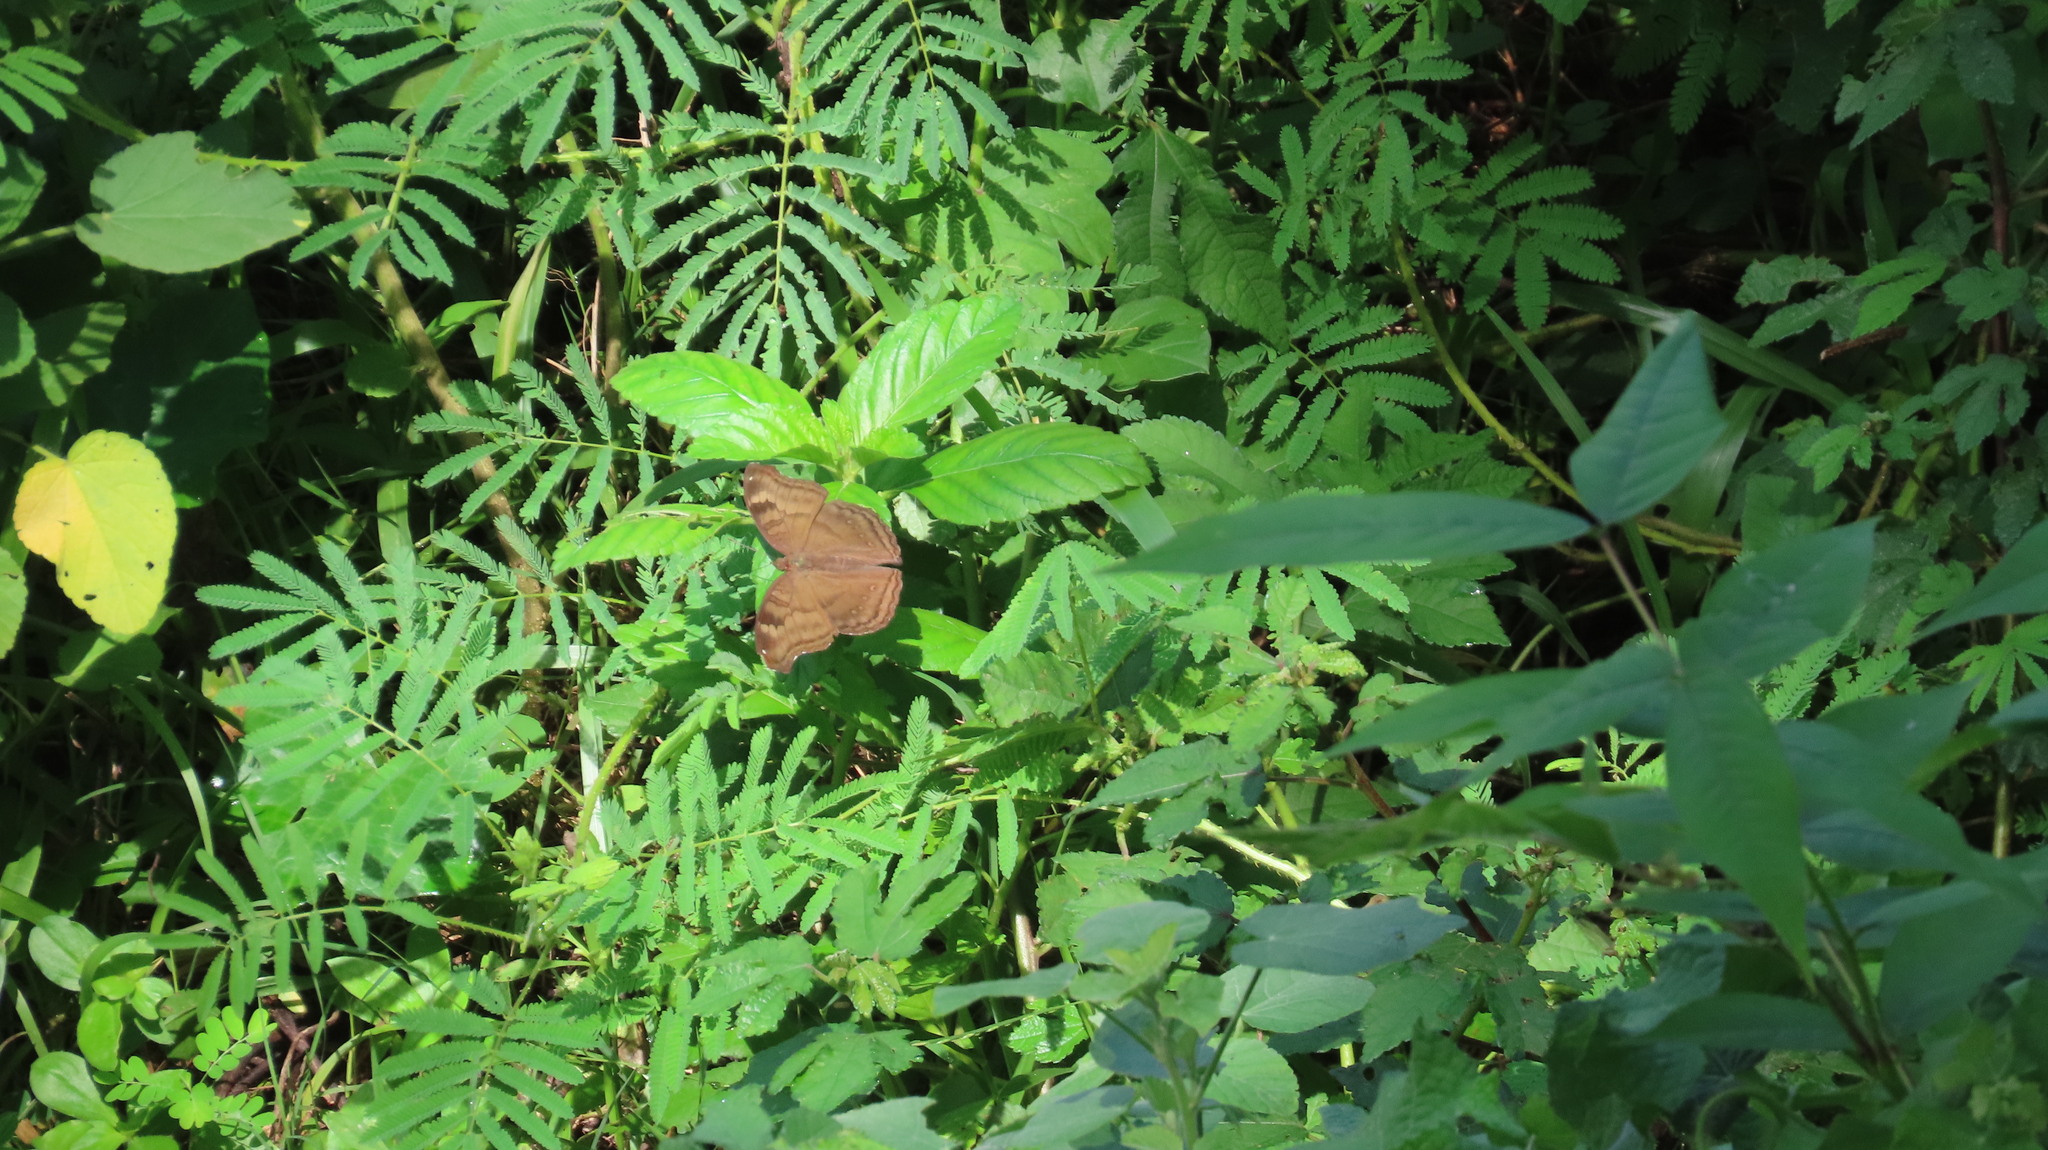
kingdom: Animalia
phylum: Arthropoda
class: Insecta
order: Lepidoptera
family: Nymphalidae
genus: Junonia
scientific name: Junonia iphita
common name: Chocolate pansy
